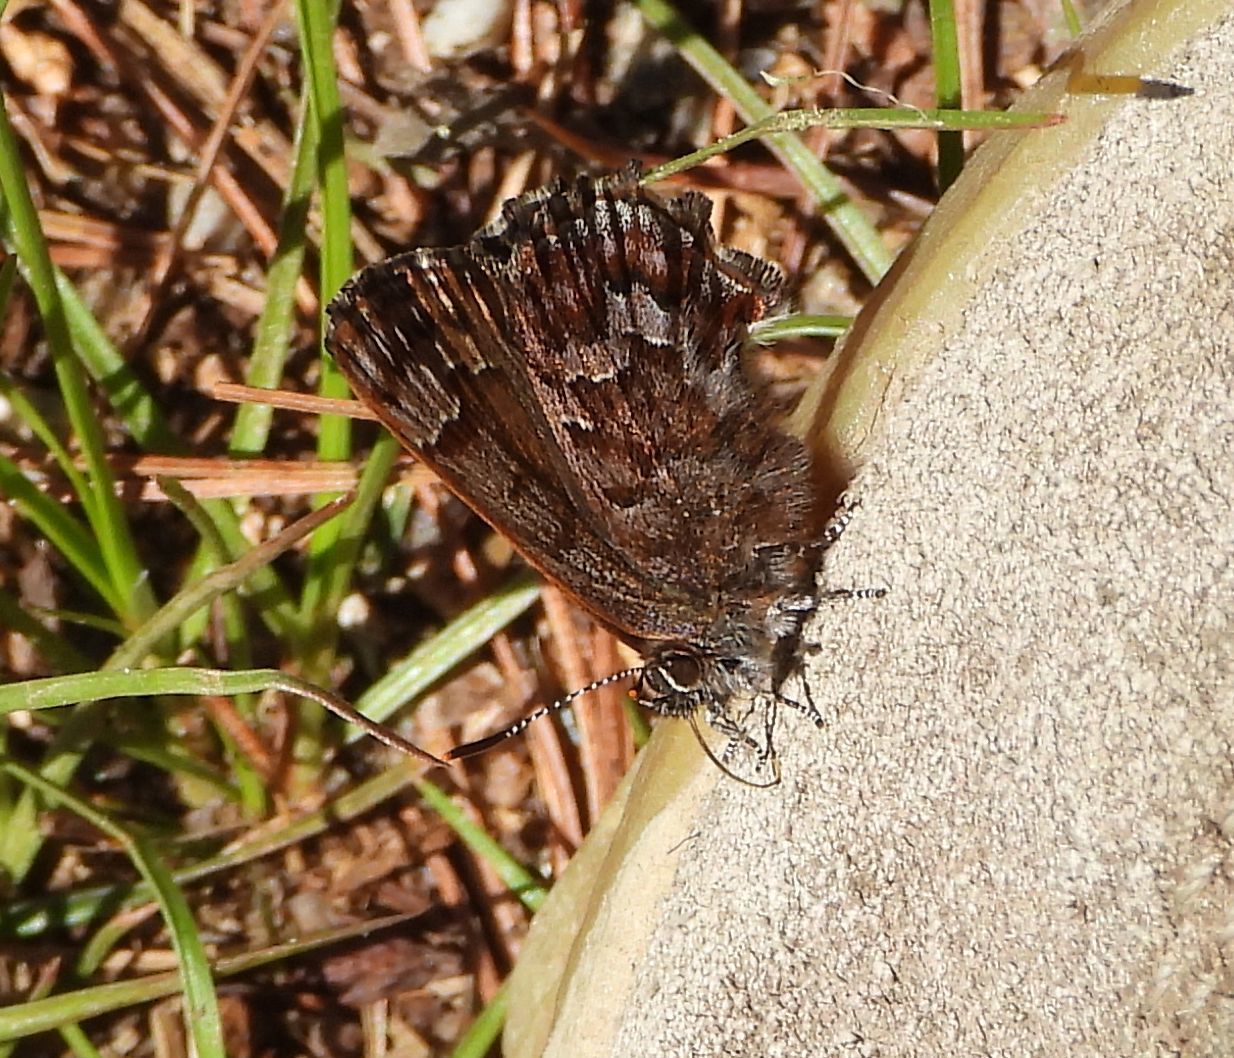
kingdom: Animalia
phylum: Arthropoda
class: Insecta
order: Lepidoptera
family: Lycaenidae
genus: Incisalia
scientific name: Incisalia niphon
